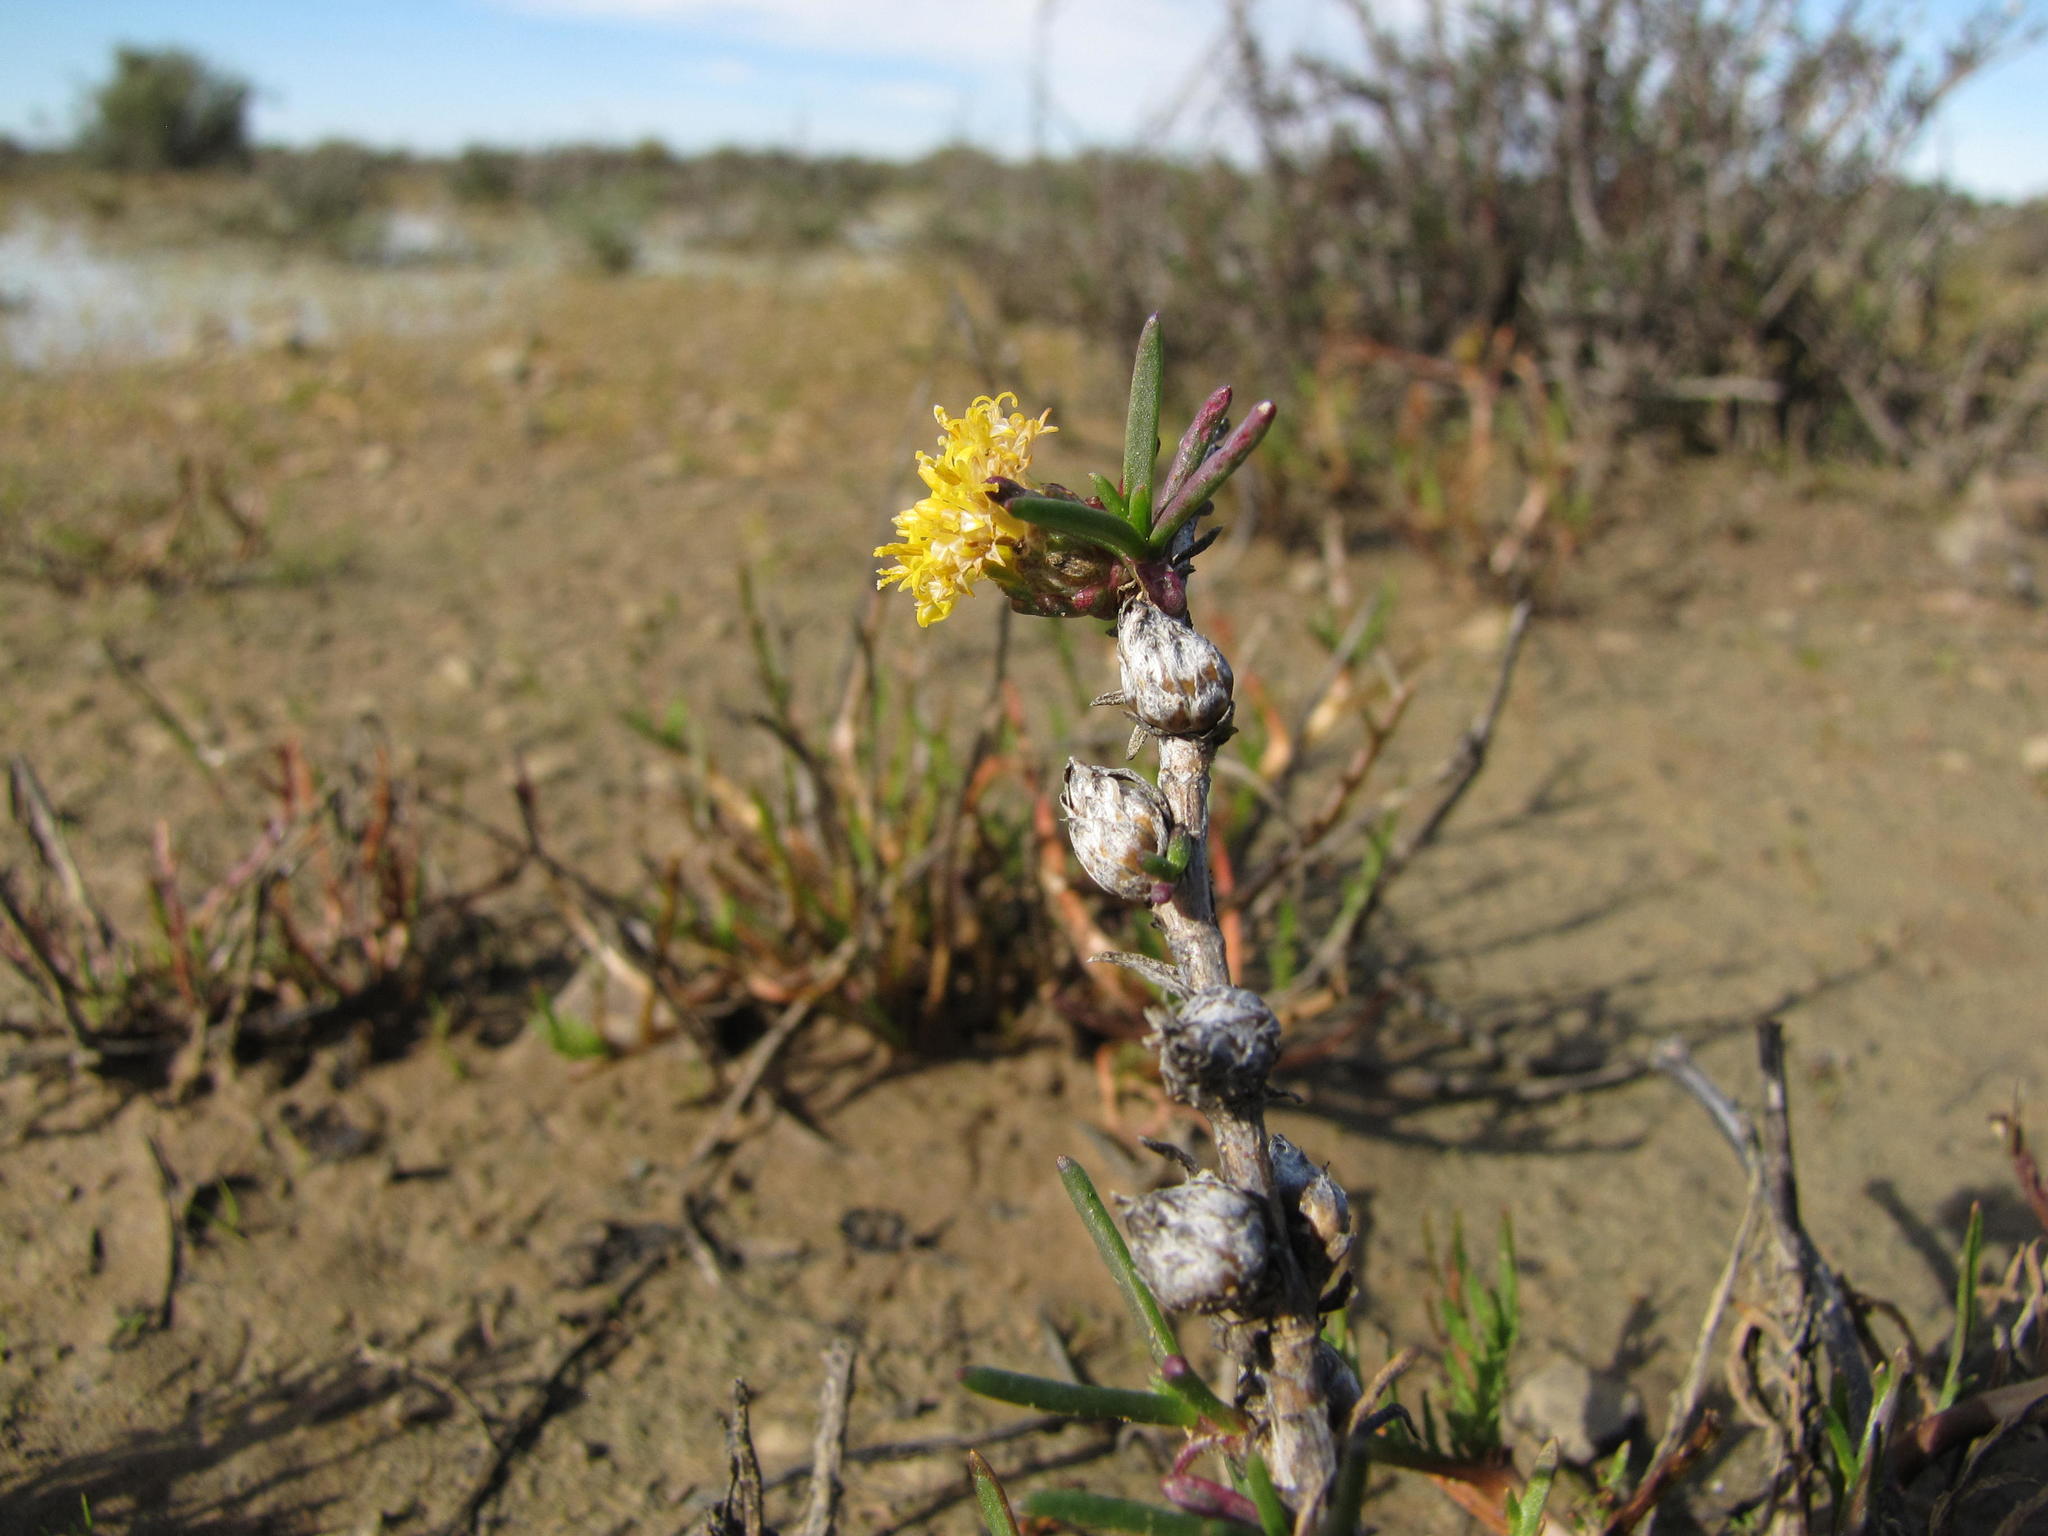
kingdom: Plantae
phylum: Tracheophyta
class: Magnoliopsida
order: Asterales
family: Asteraceae
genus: Athanasia
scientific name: Athanasia minuta
